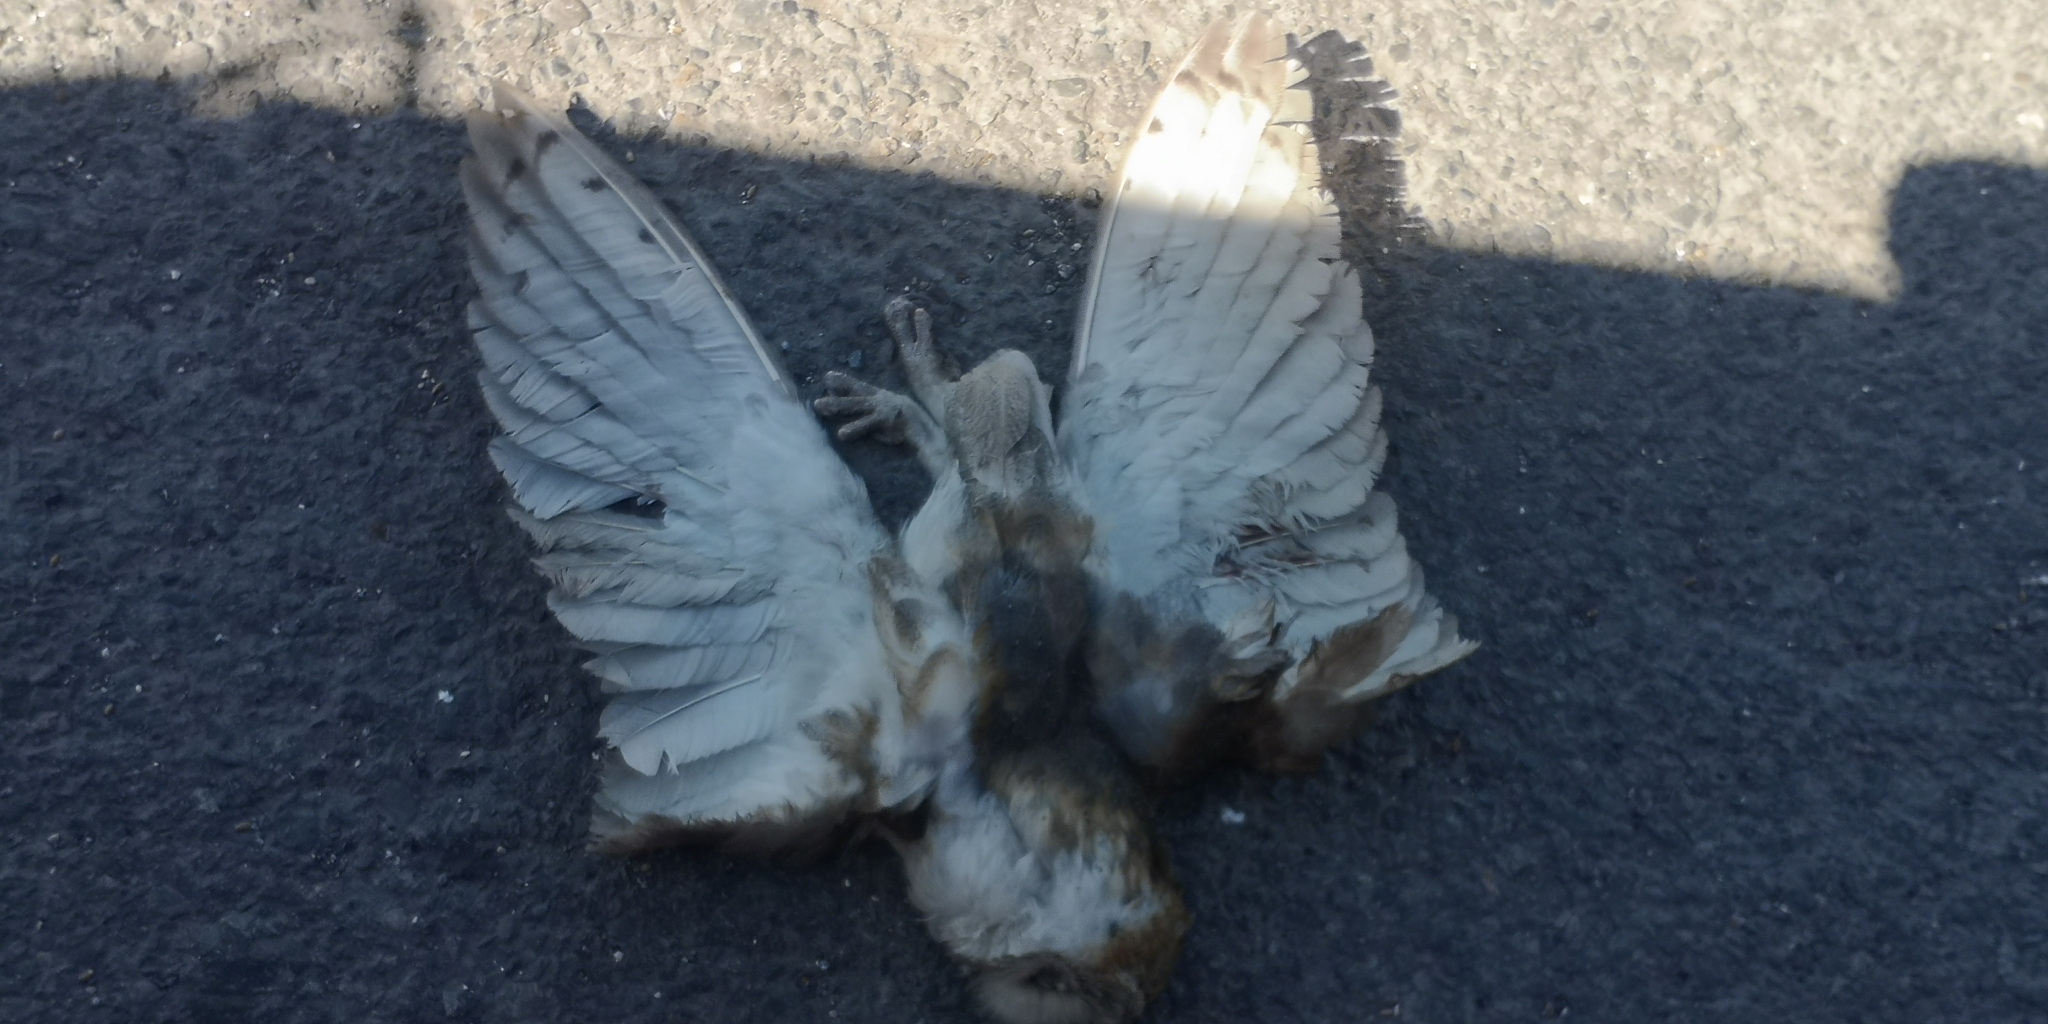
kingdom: Animalia
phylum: Chordata
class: Aves
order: Strigiformes
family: Tytonidae
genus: Tyto
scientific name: Tyto furcata
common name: American barn owl
